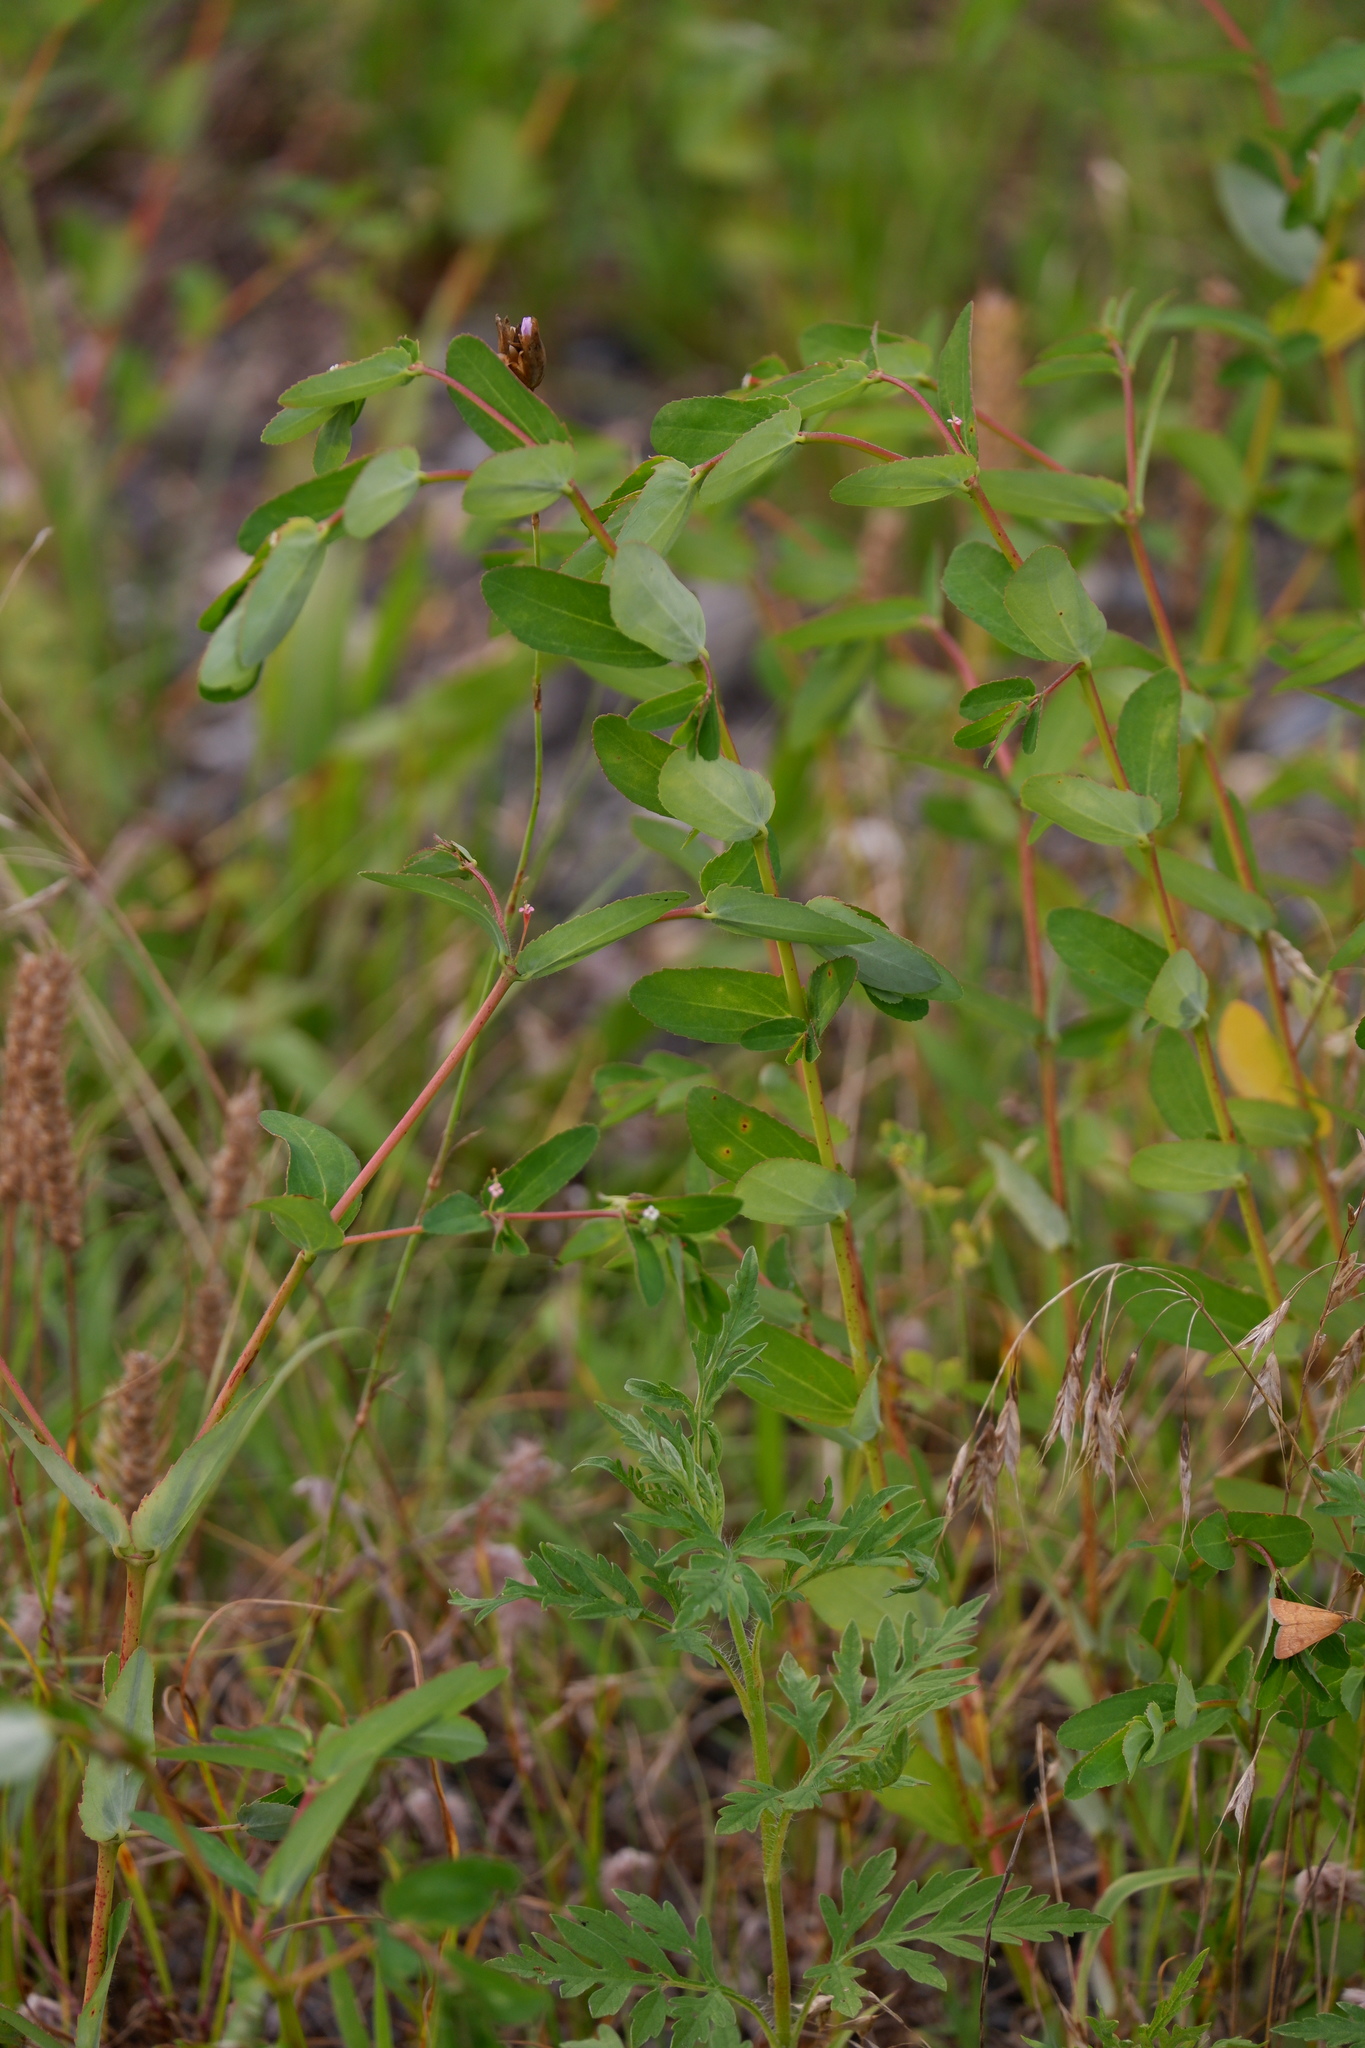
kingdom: Plantae
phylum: Tracheophyta
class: Magnoliopsida
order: Malpighiales
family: Euphorbiaceae
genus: Euphorbia
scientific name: Euphorbia nutans
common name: Eyebane
